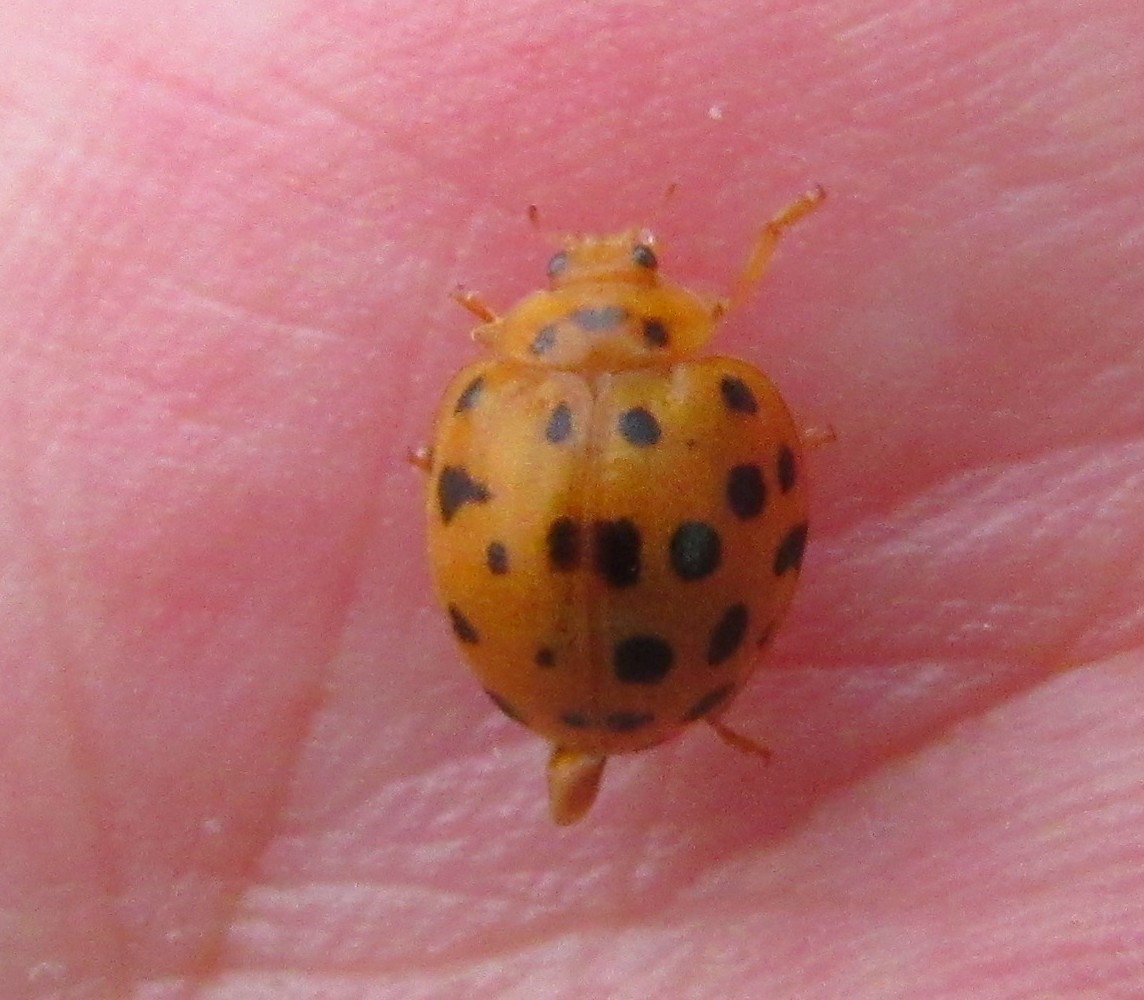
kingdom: Animalia
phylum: Arthropoda
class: Insecta
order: Coleoptera
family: Coccinellidae
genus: Henosepilachna
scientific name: Henosepilachna vigintioctopunctata
